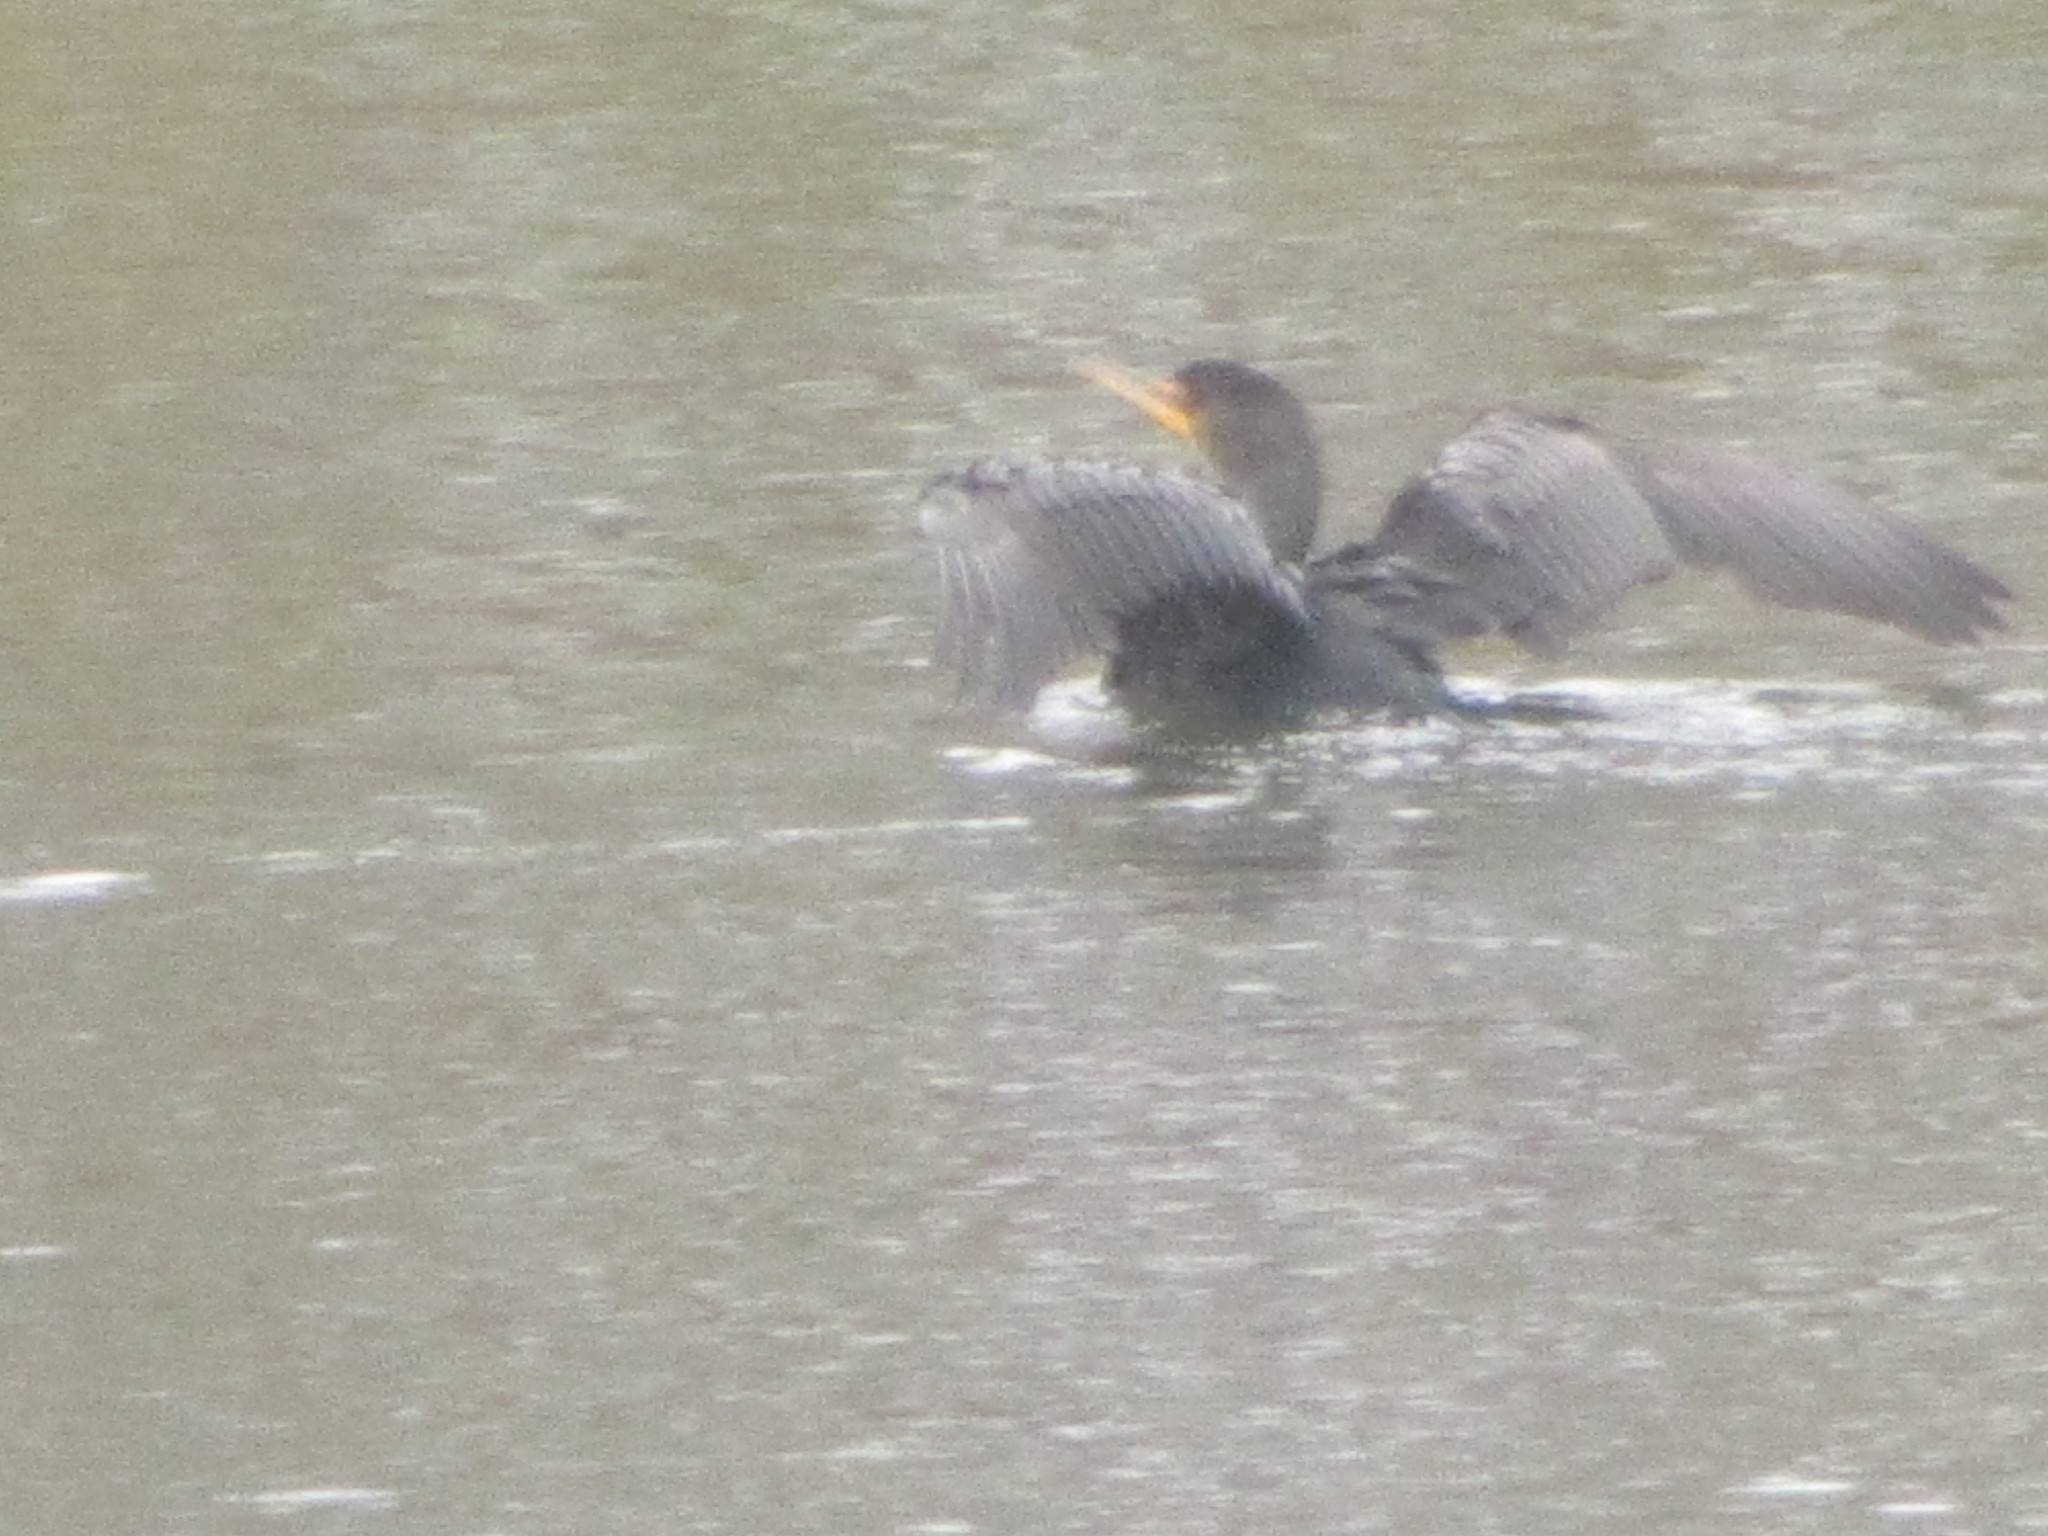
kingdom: Animalia
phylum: Chordata
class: Aves
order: Suliformes
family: Phalacrocoracidae
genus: Phalacrocorax
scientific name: Phalacrocorax auritus
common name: Double-crested cormorant
